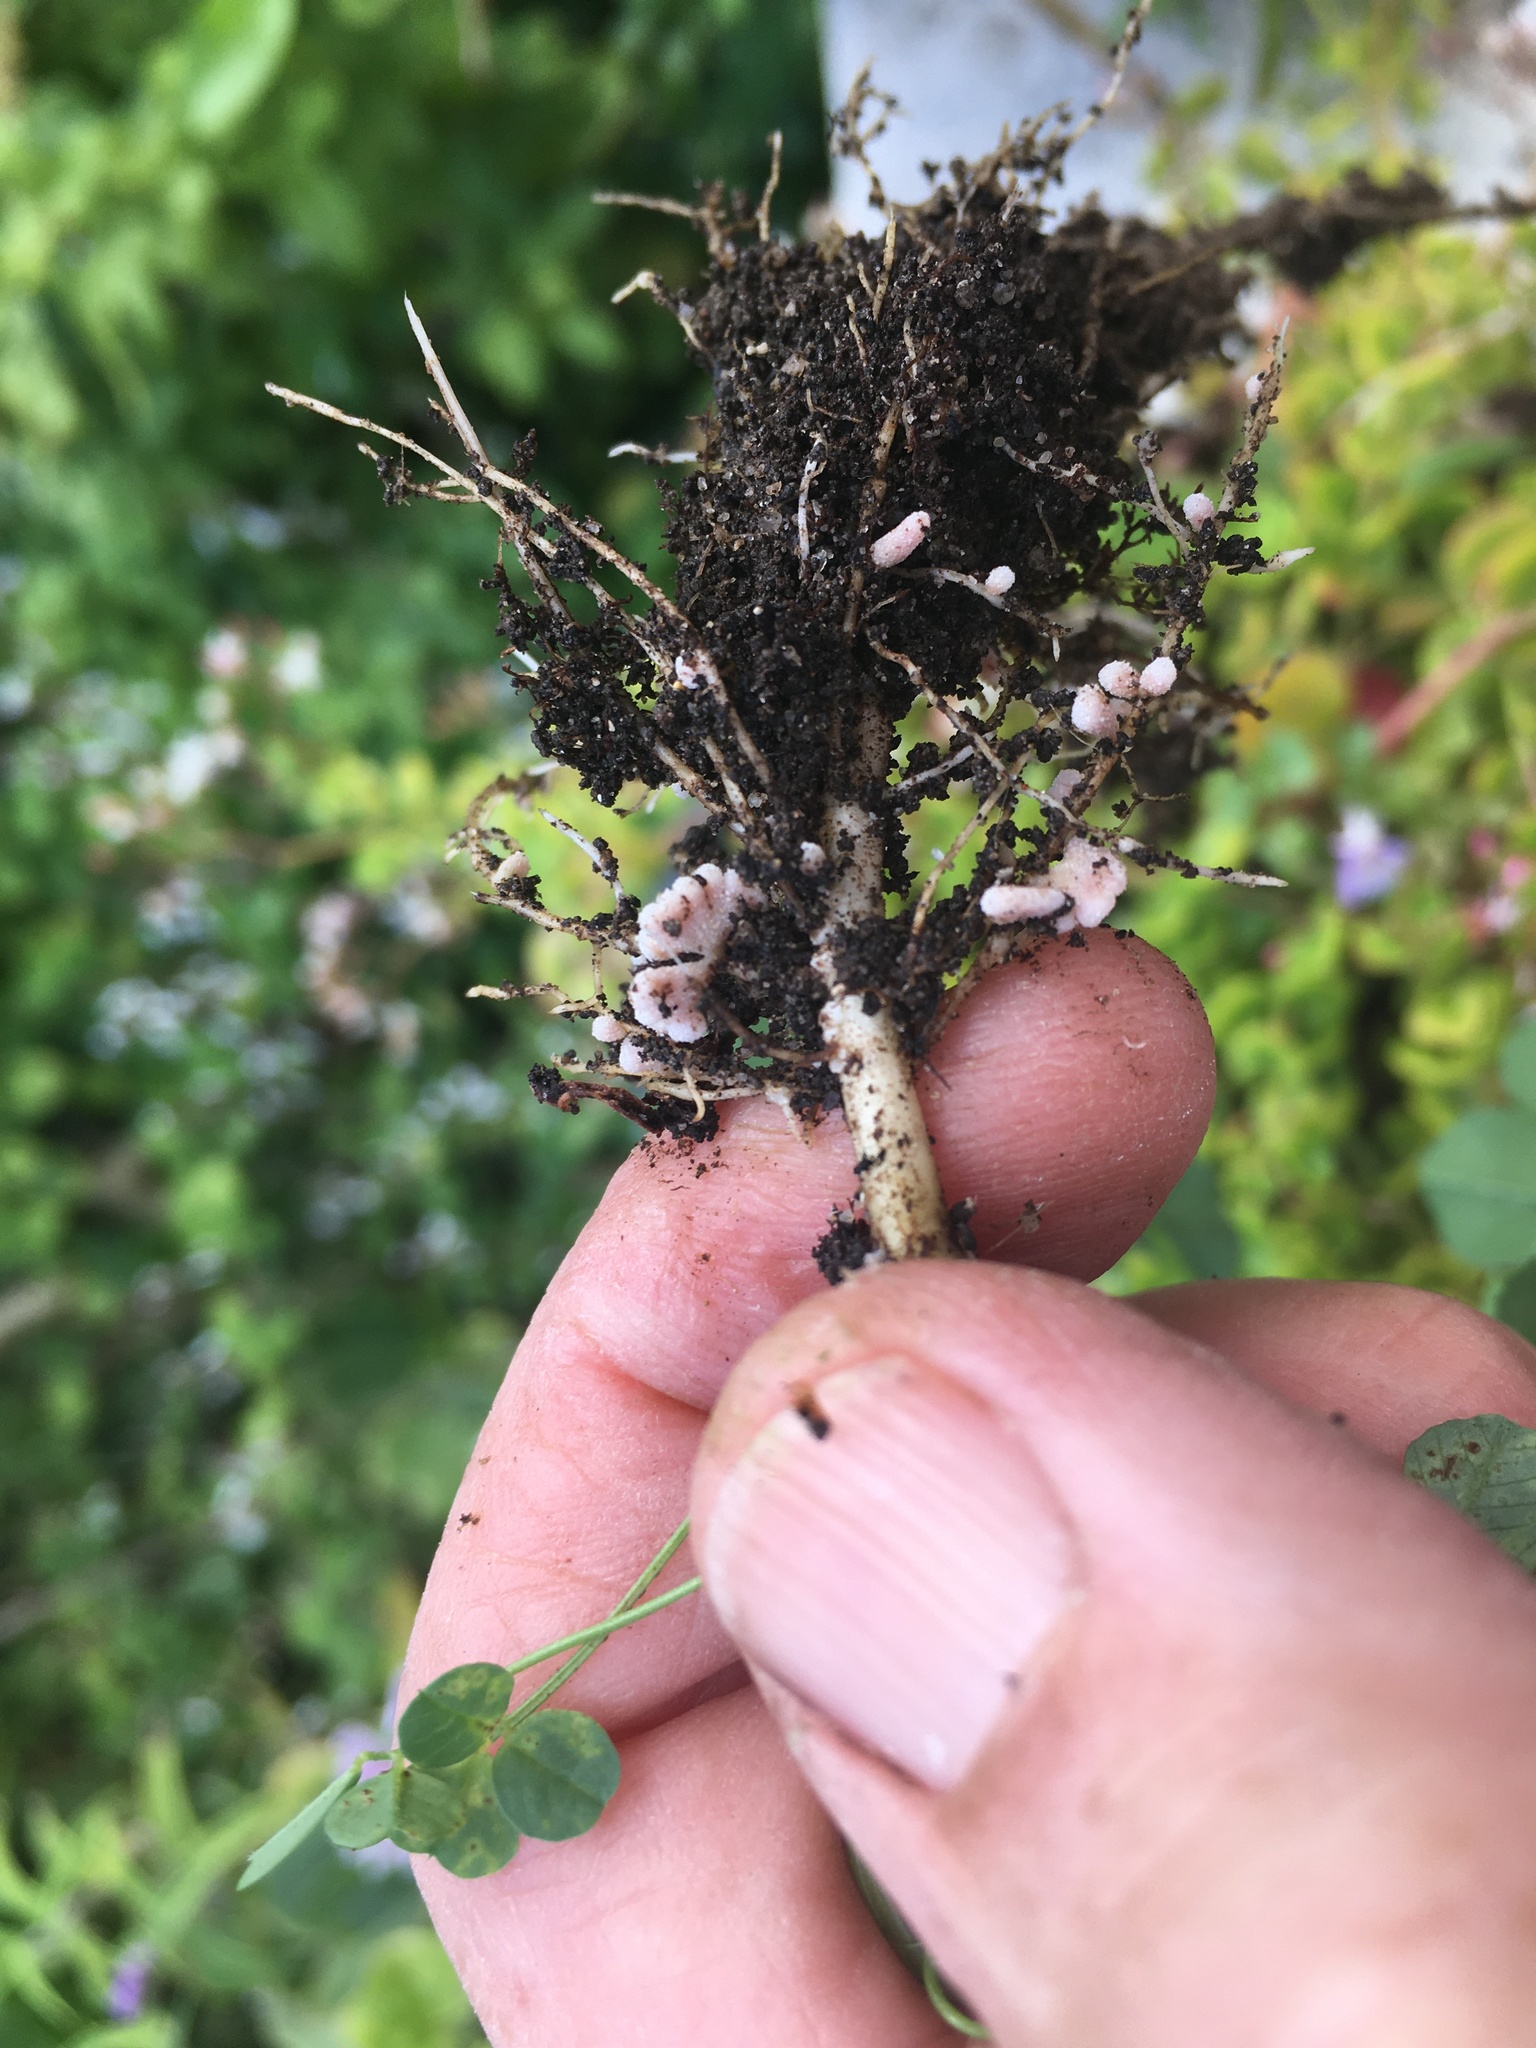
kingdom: Plantae
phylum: Tracheophyta
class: Magnoliopsida
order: Fabales
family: Fabaceae
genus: Medicago
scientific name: Medicago polymorpha
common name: Burclover
